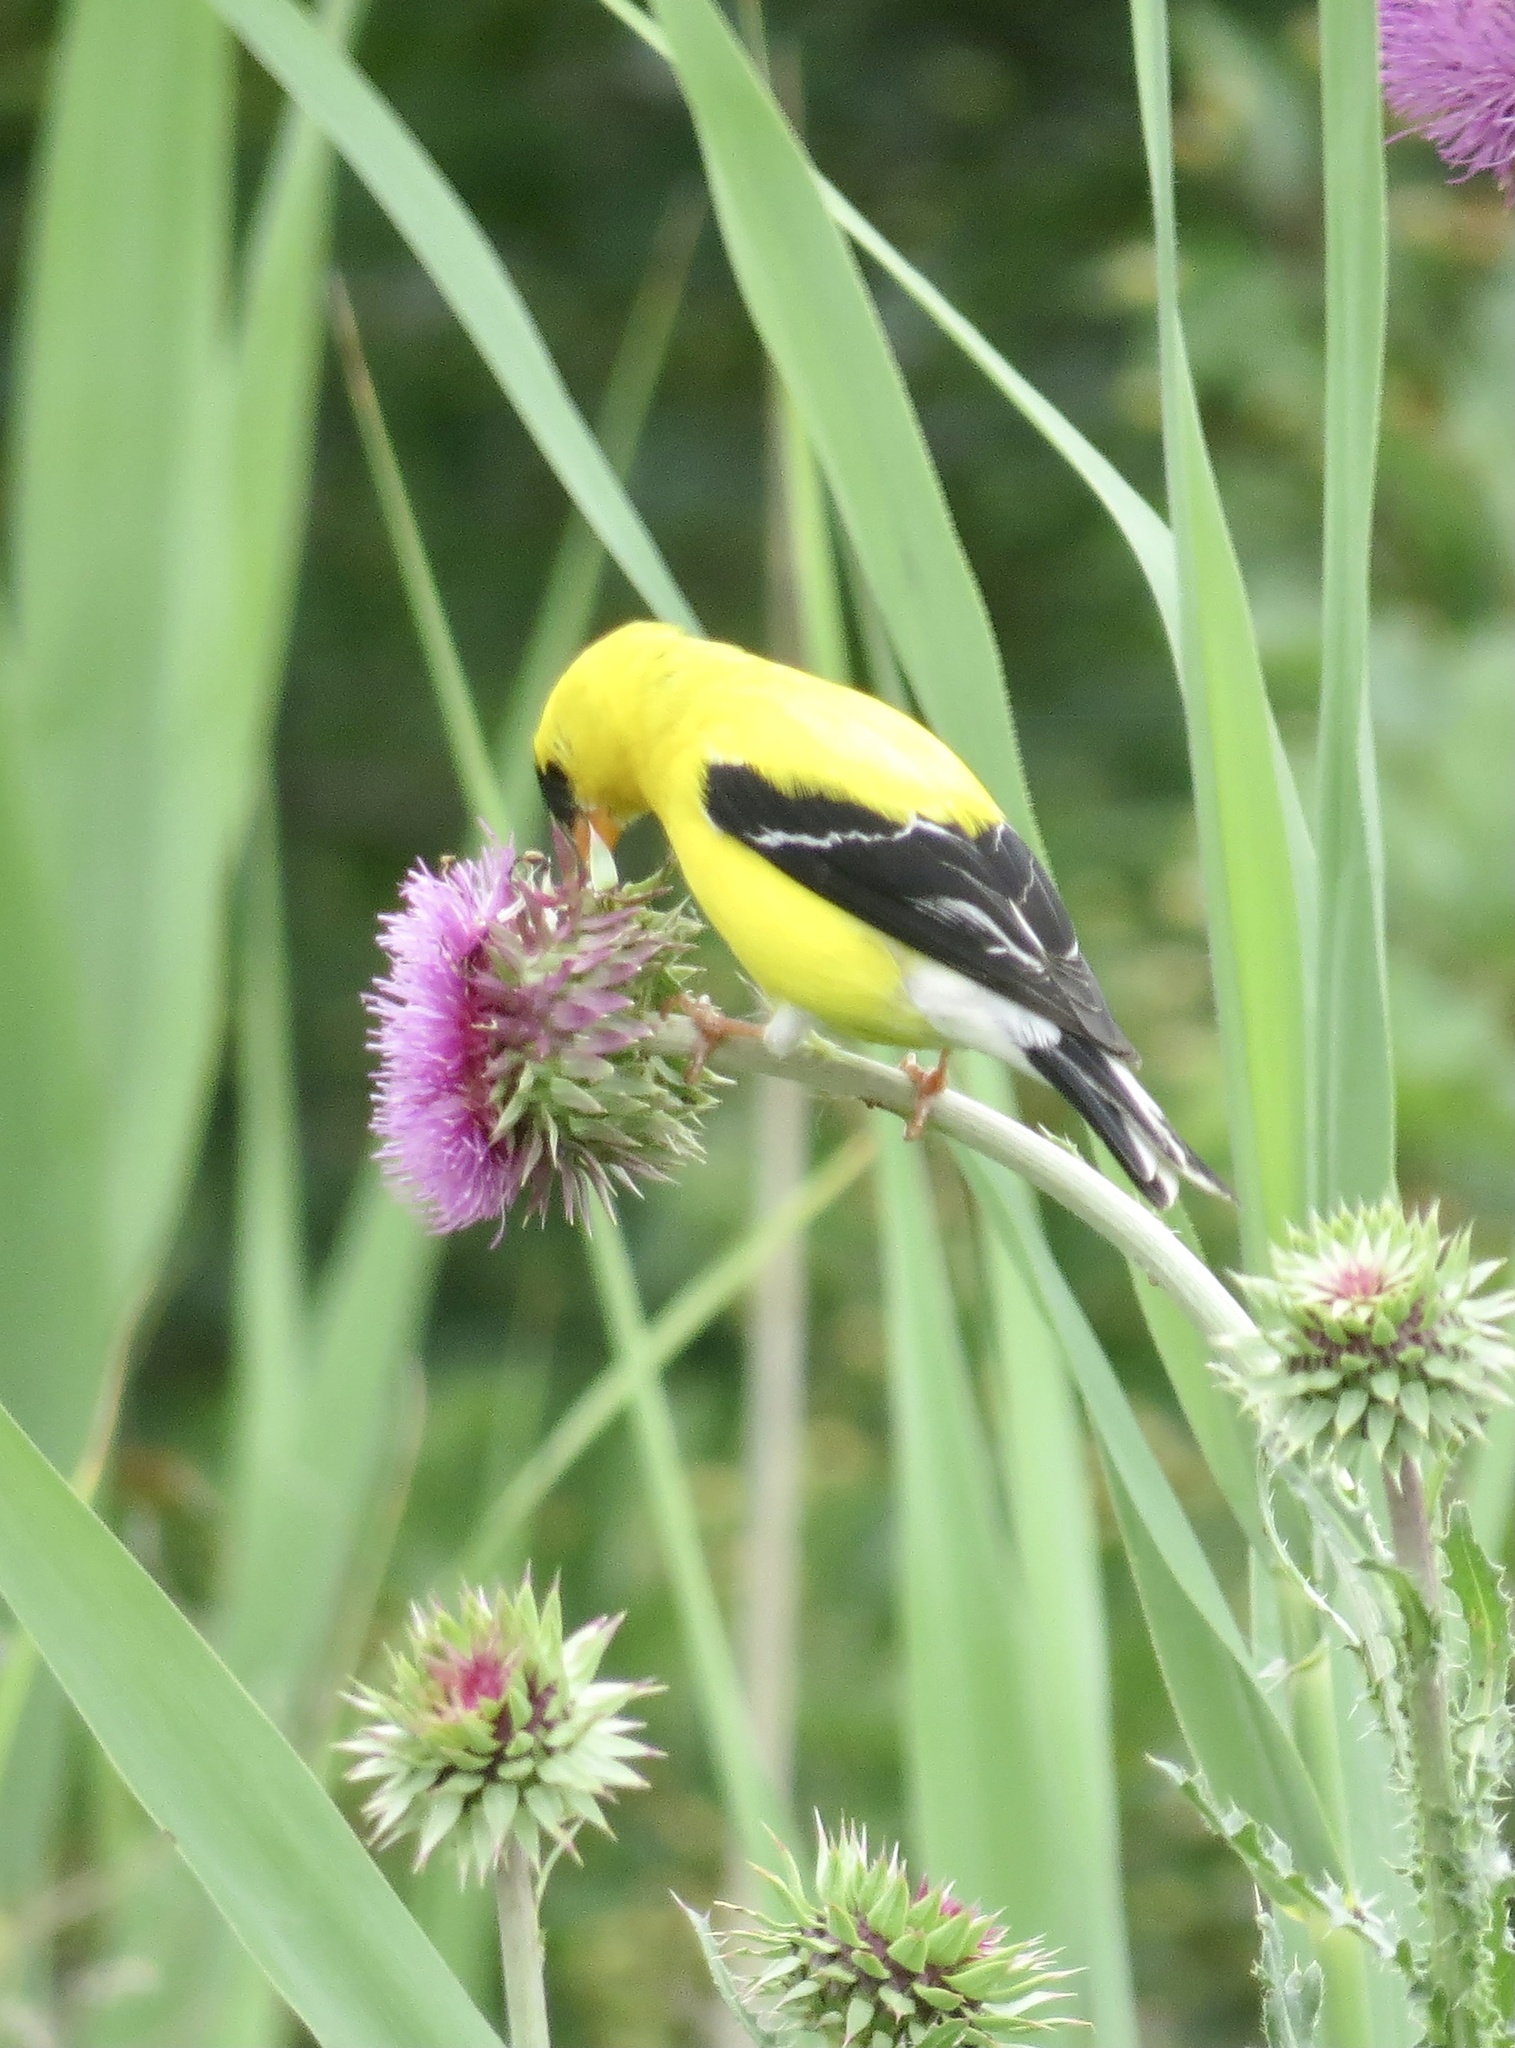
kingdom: Animalia
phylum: Chordata
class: Aves
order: Passeriformes
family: Fringillidae
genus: Spinus
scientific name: Spinus tristis
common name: American goldfinch
